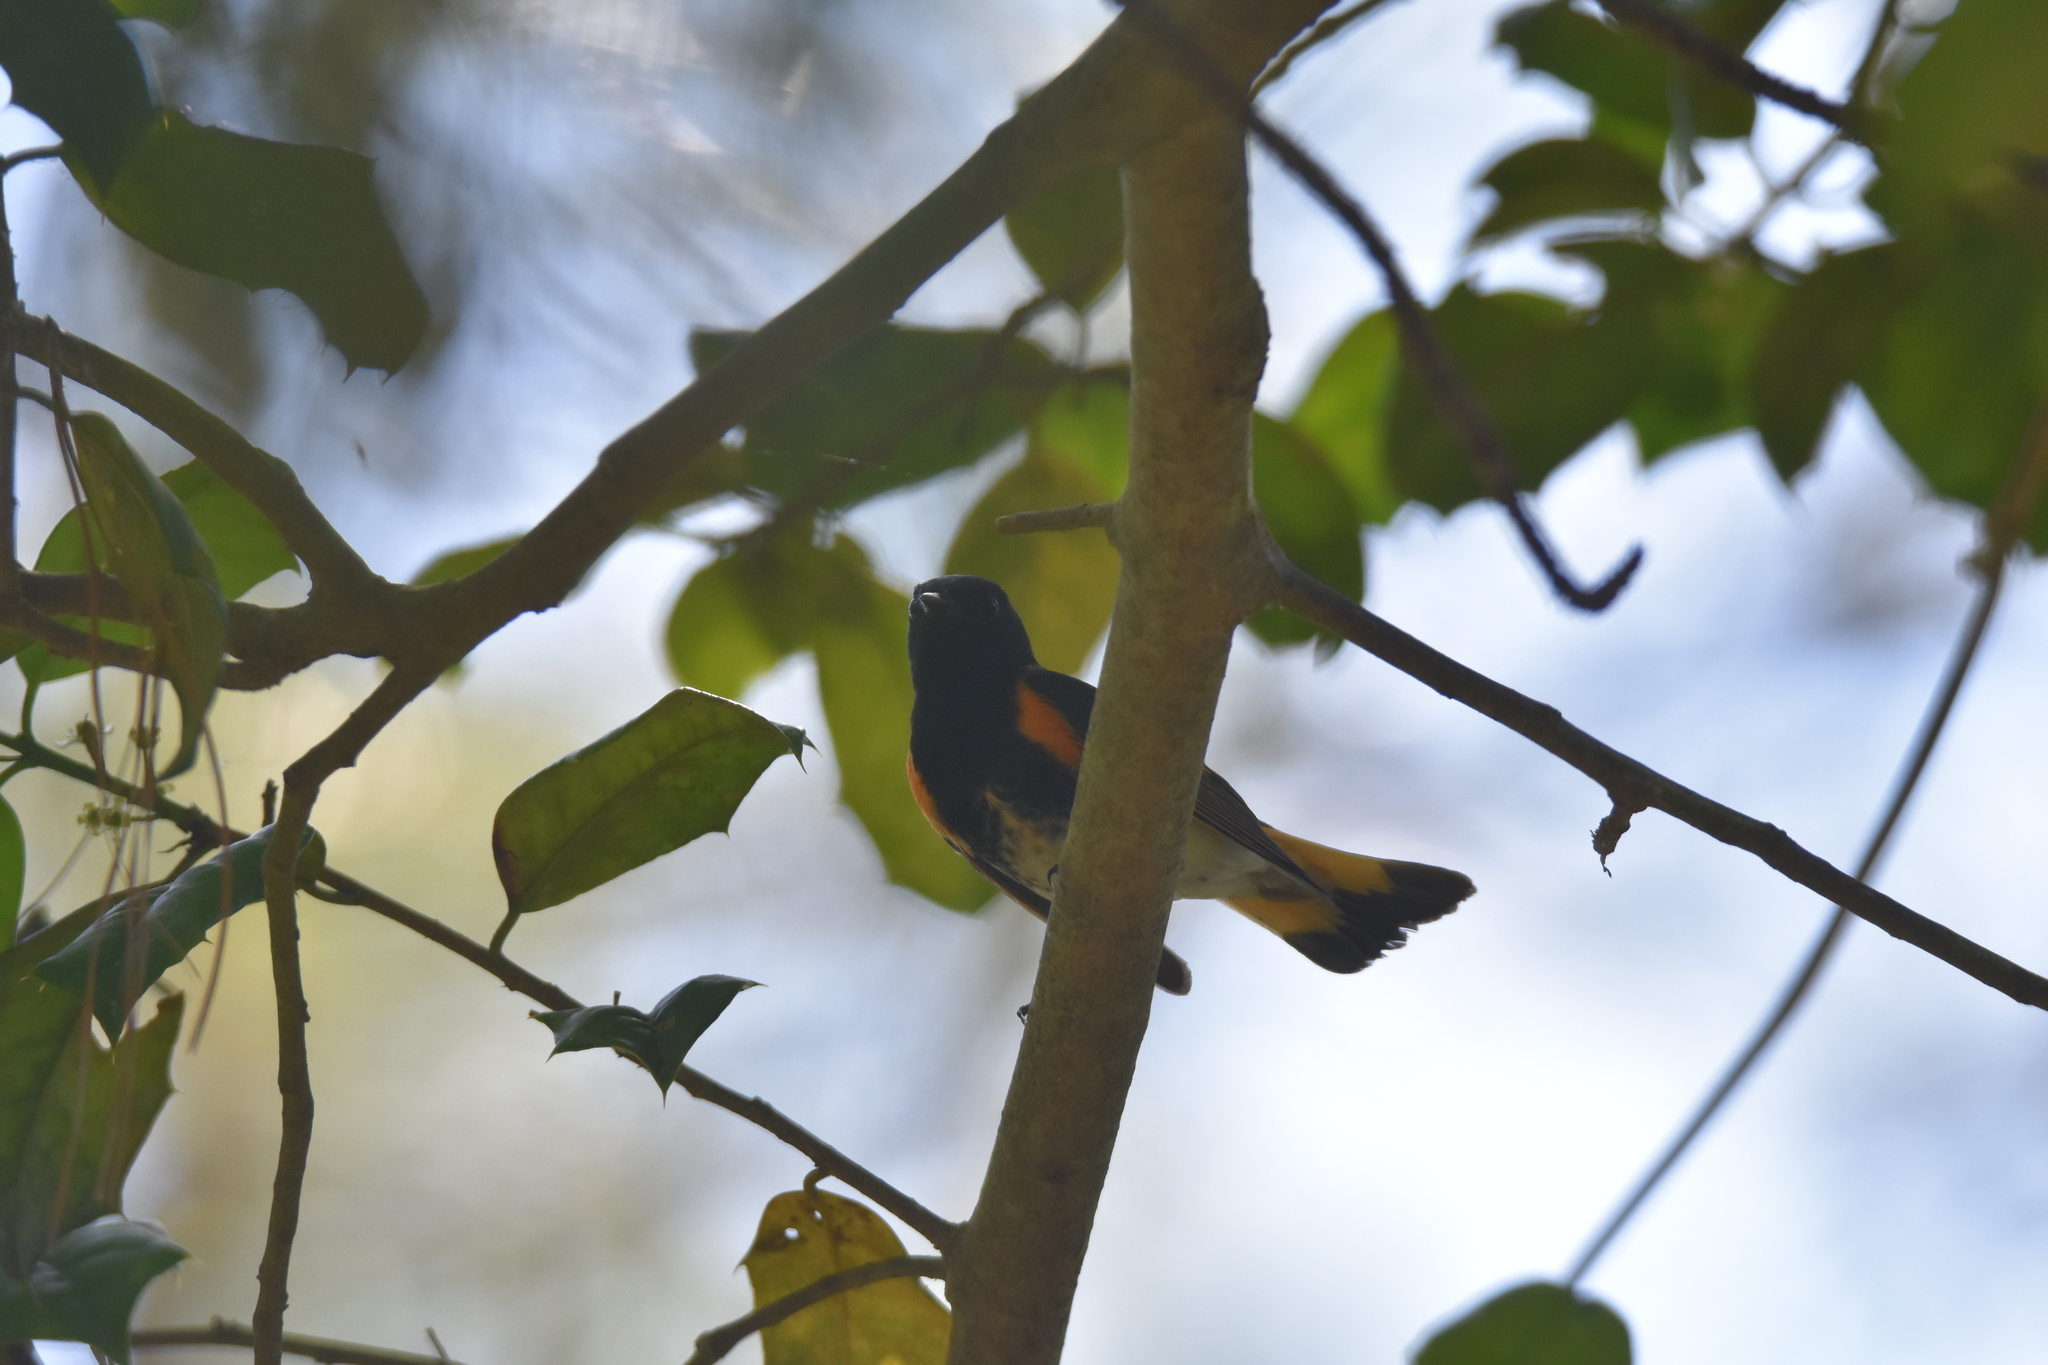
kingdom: Animalia
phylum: Chordata
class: Aves
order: Passeriformes
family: Parulidae
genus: Setophaga
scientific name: Setophaga ruticilla
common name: American redstart
